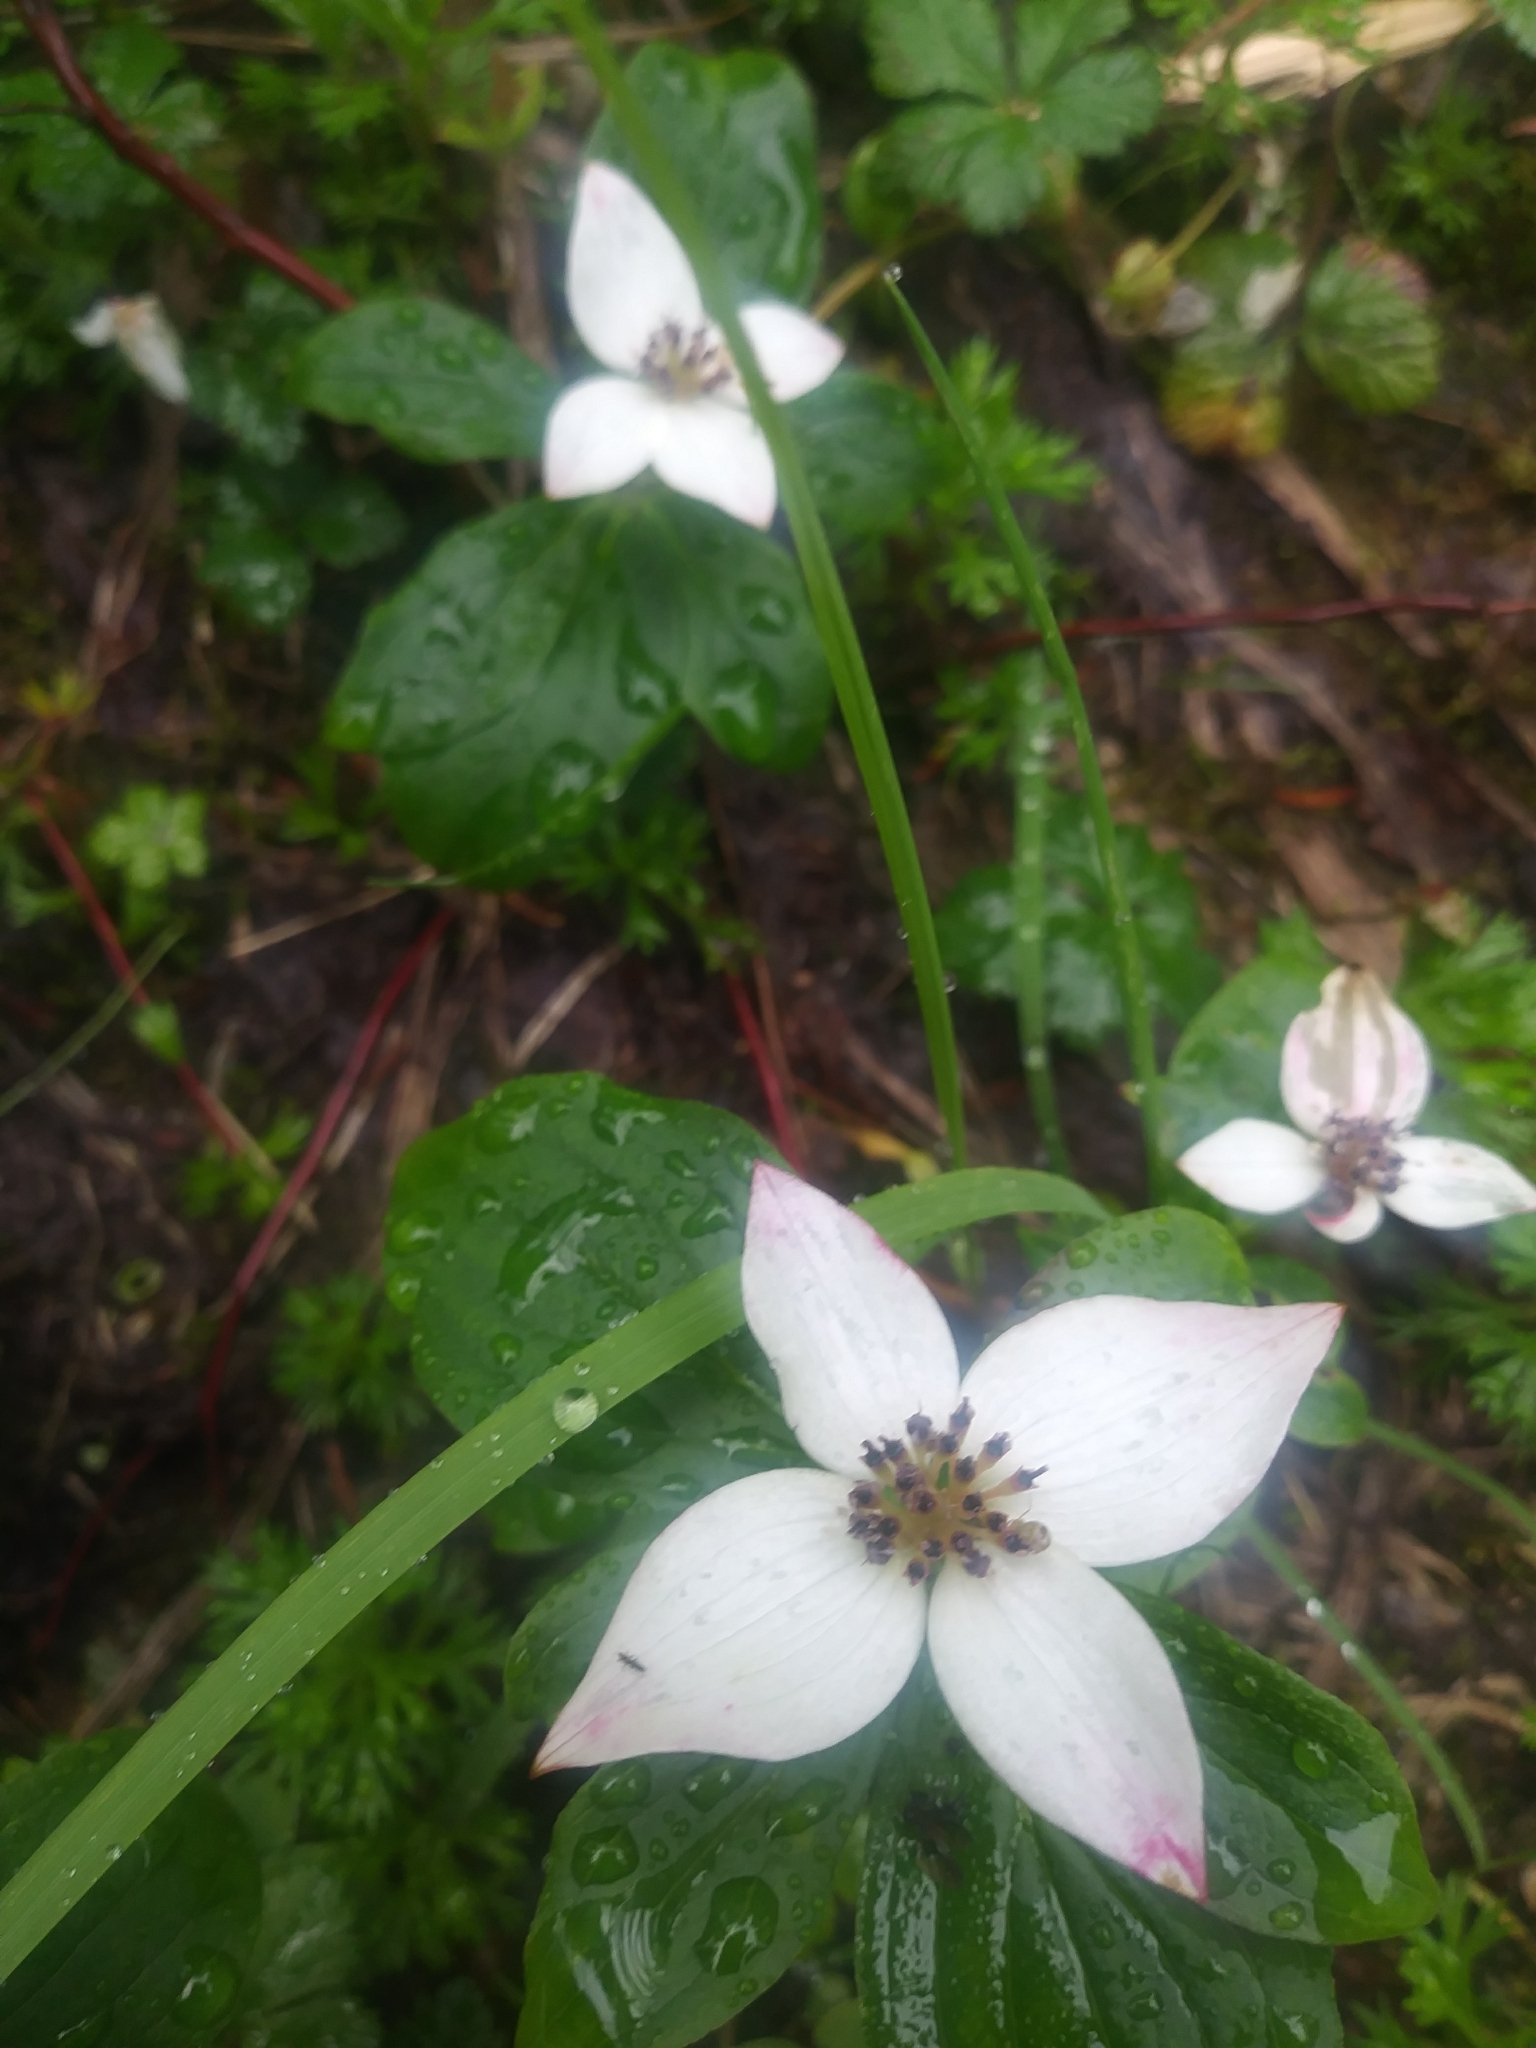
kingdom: Plantae
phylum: Tracheophyta
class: Magnoliopsida
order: Cornales
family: Cornaceae
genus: Cornus
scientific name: Cornus unalaschkensis
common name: Alaska bunchberry
